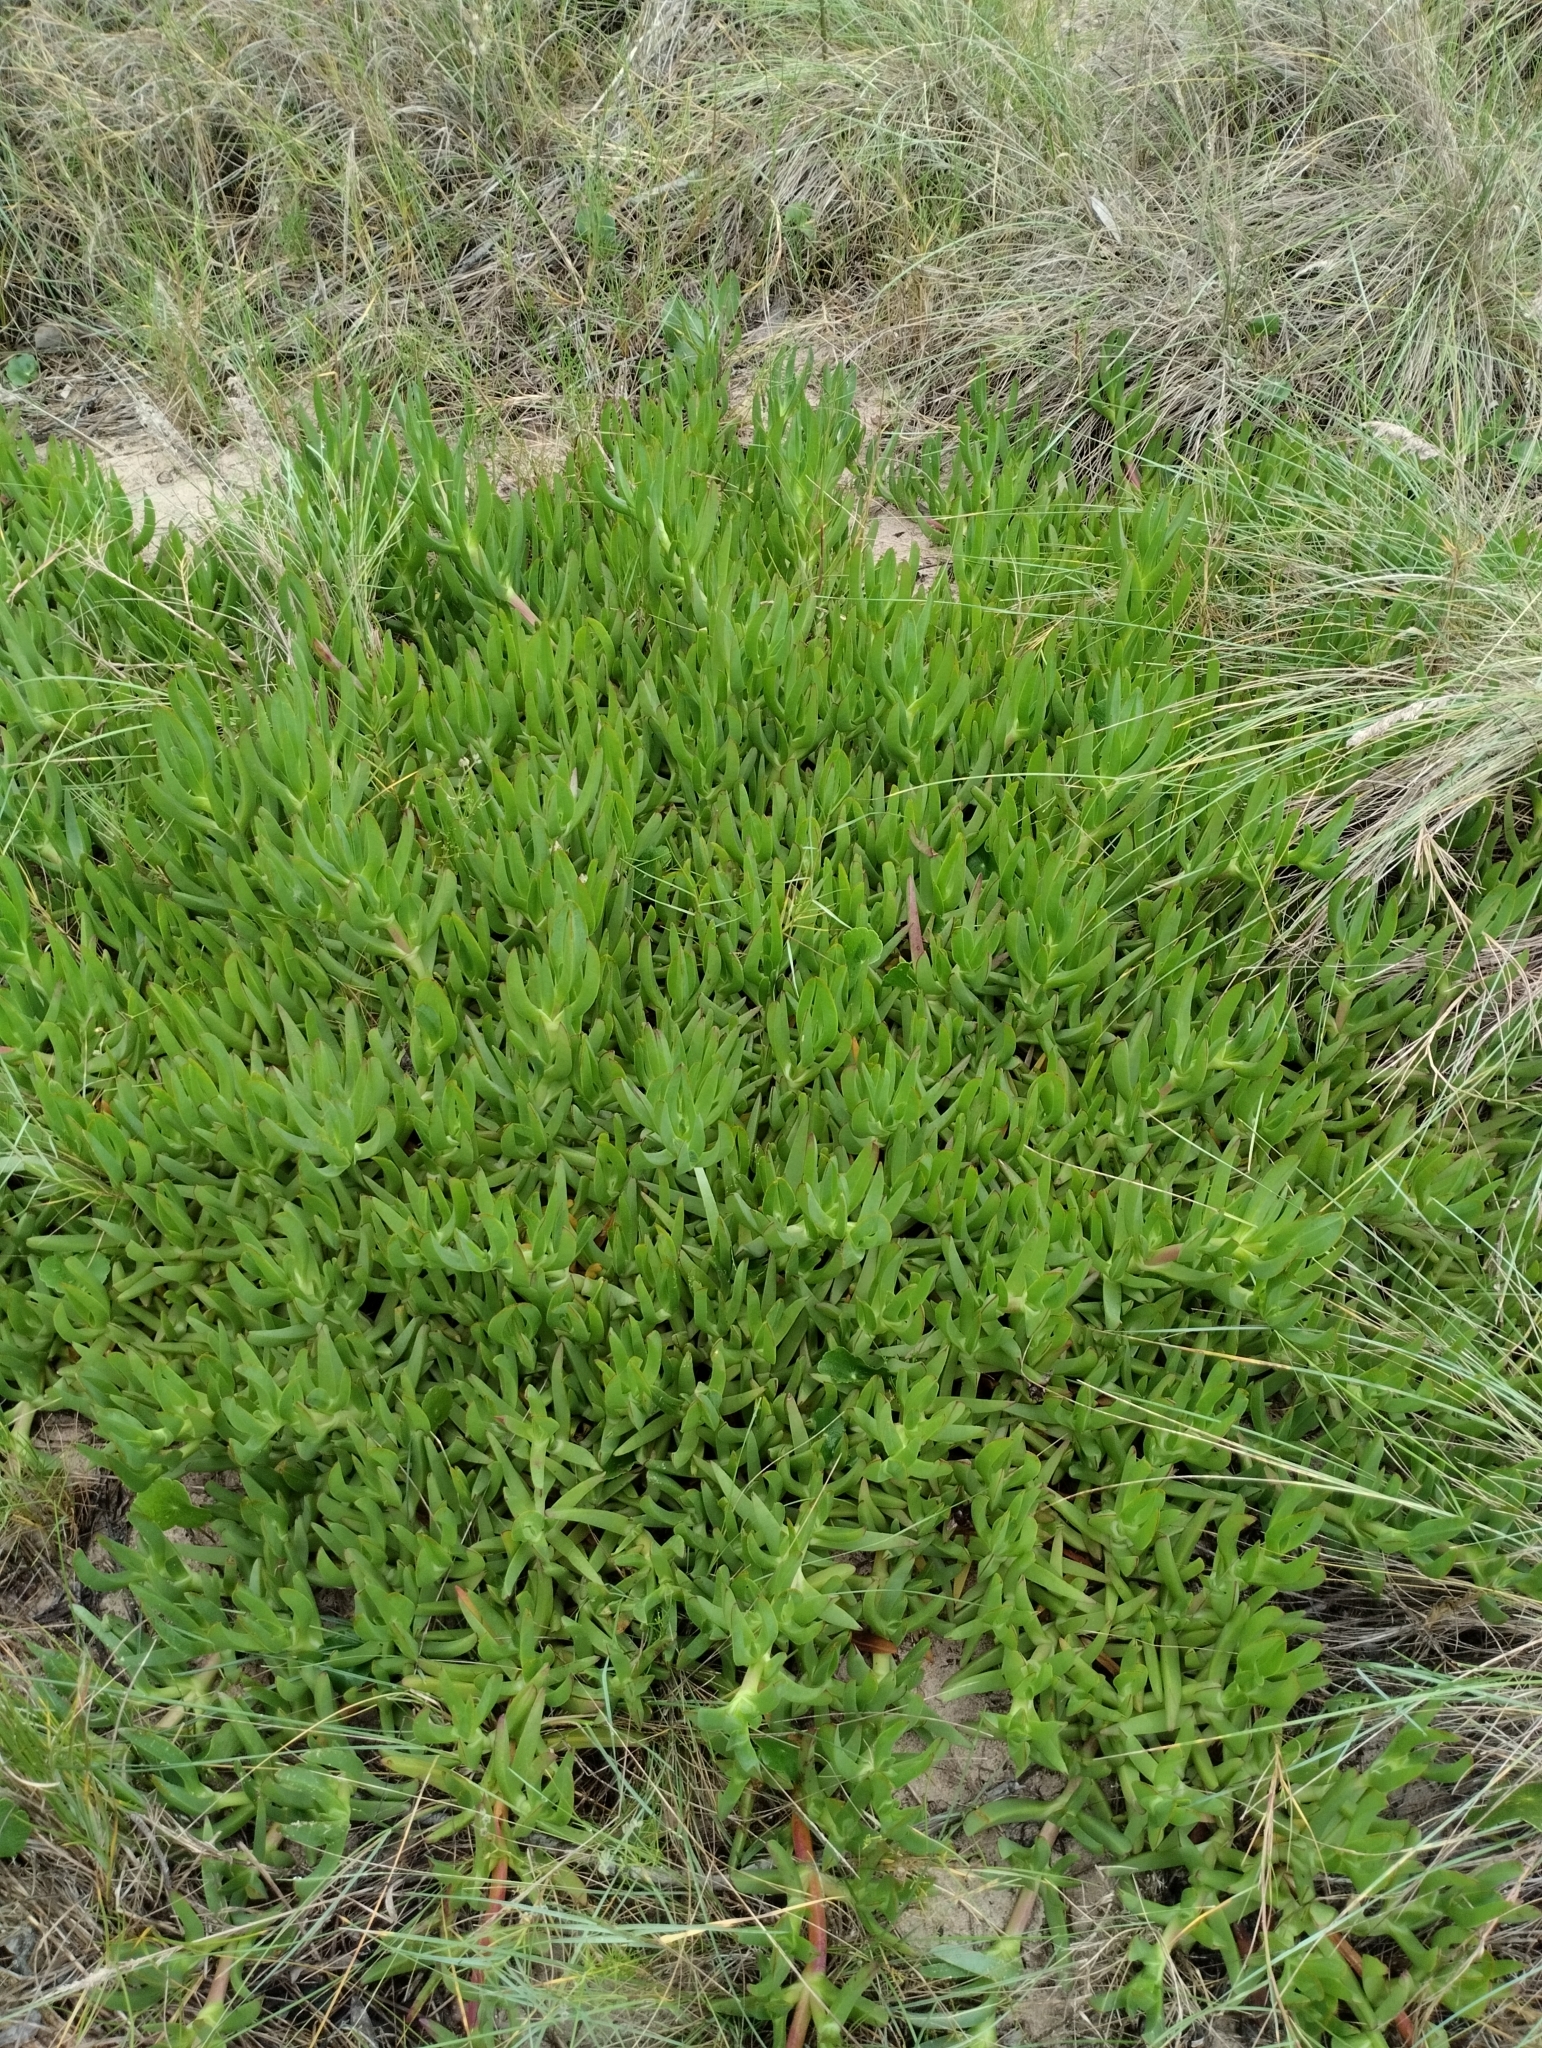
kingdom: Plantae
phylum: Tracheophyta
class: Magnoliopsida
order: Caryophyllales
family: Aizoaceae
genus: Carpobrotus
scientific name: Carpobrotus edulis
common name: Hottentot-fig
